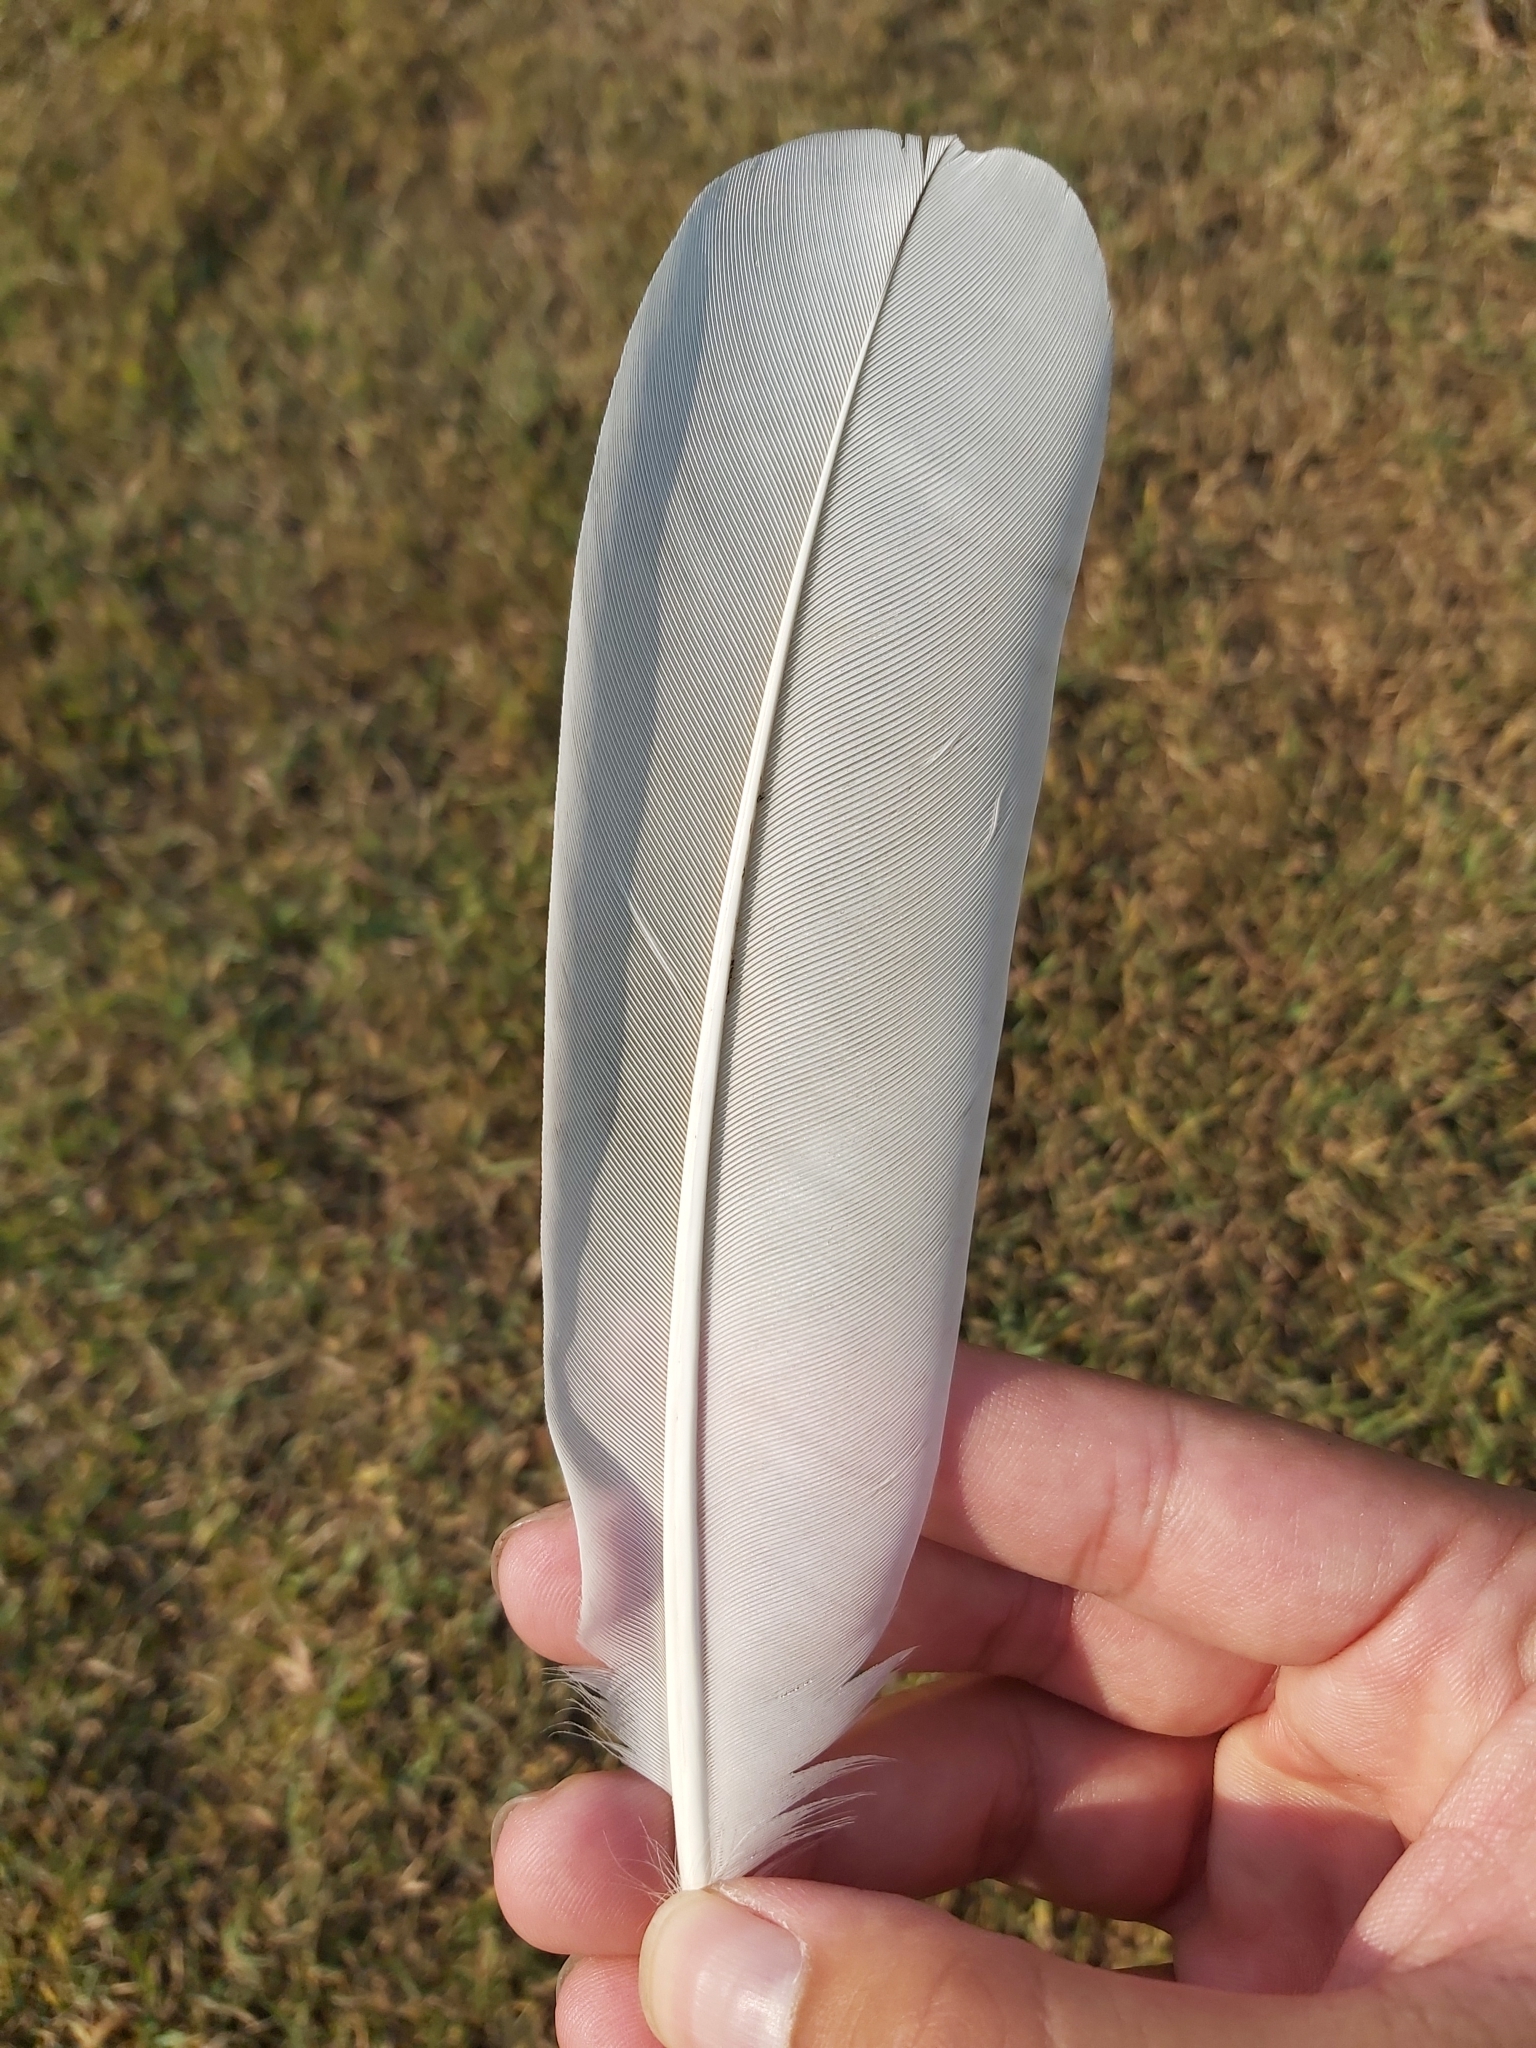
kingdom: Animalia
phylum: Chordata
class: Aves
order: Pelecaniformes
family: Threskiornithidae
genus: Threskiornis
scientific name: Threskiornis molucca
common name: Australian white ibis
